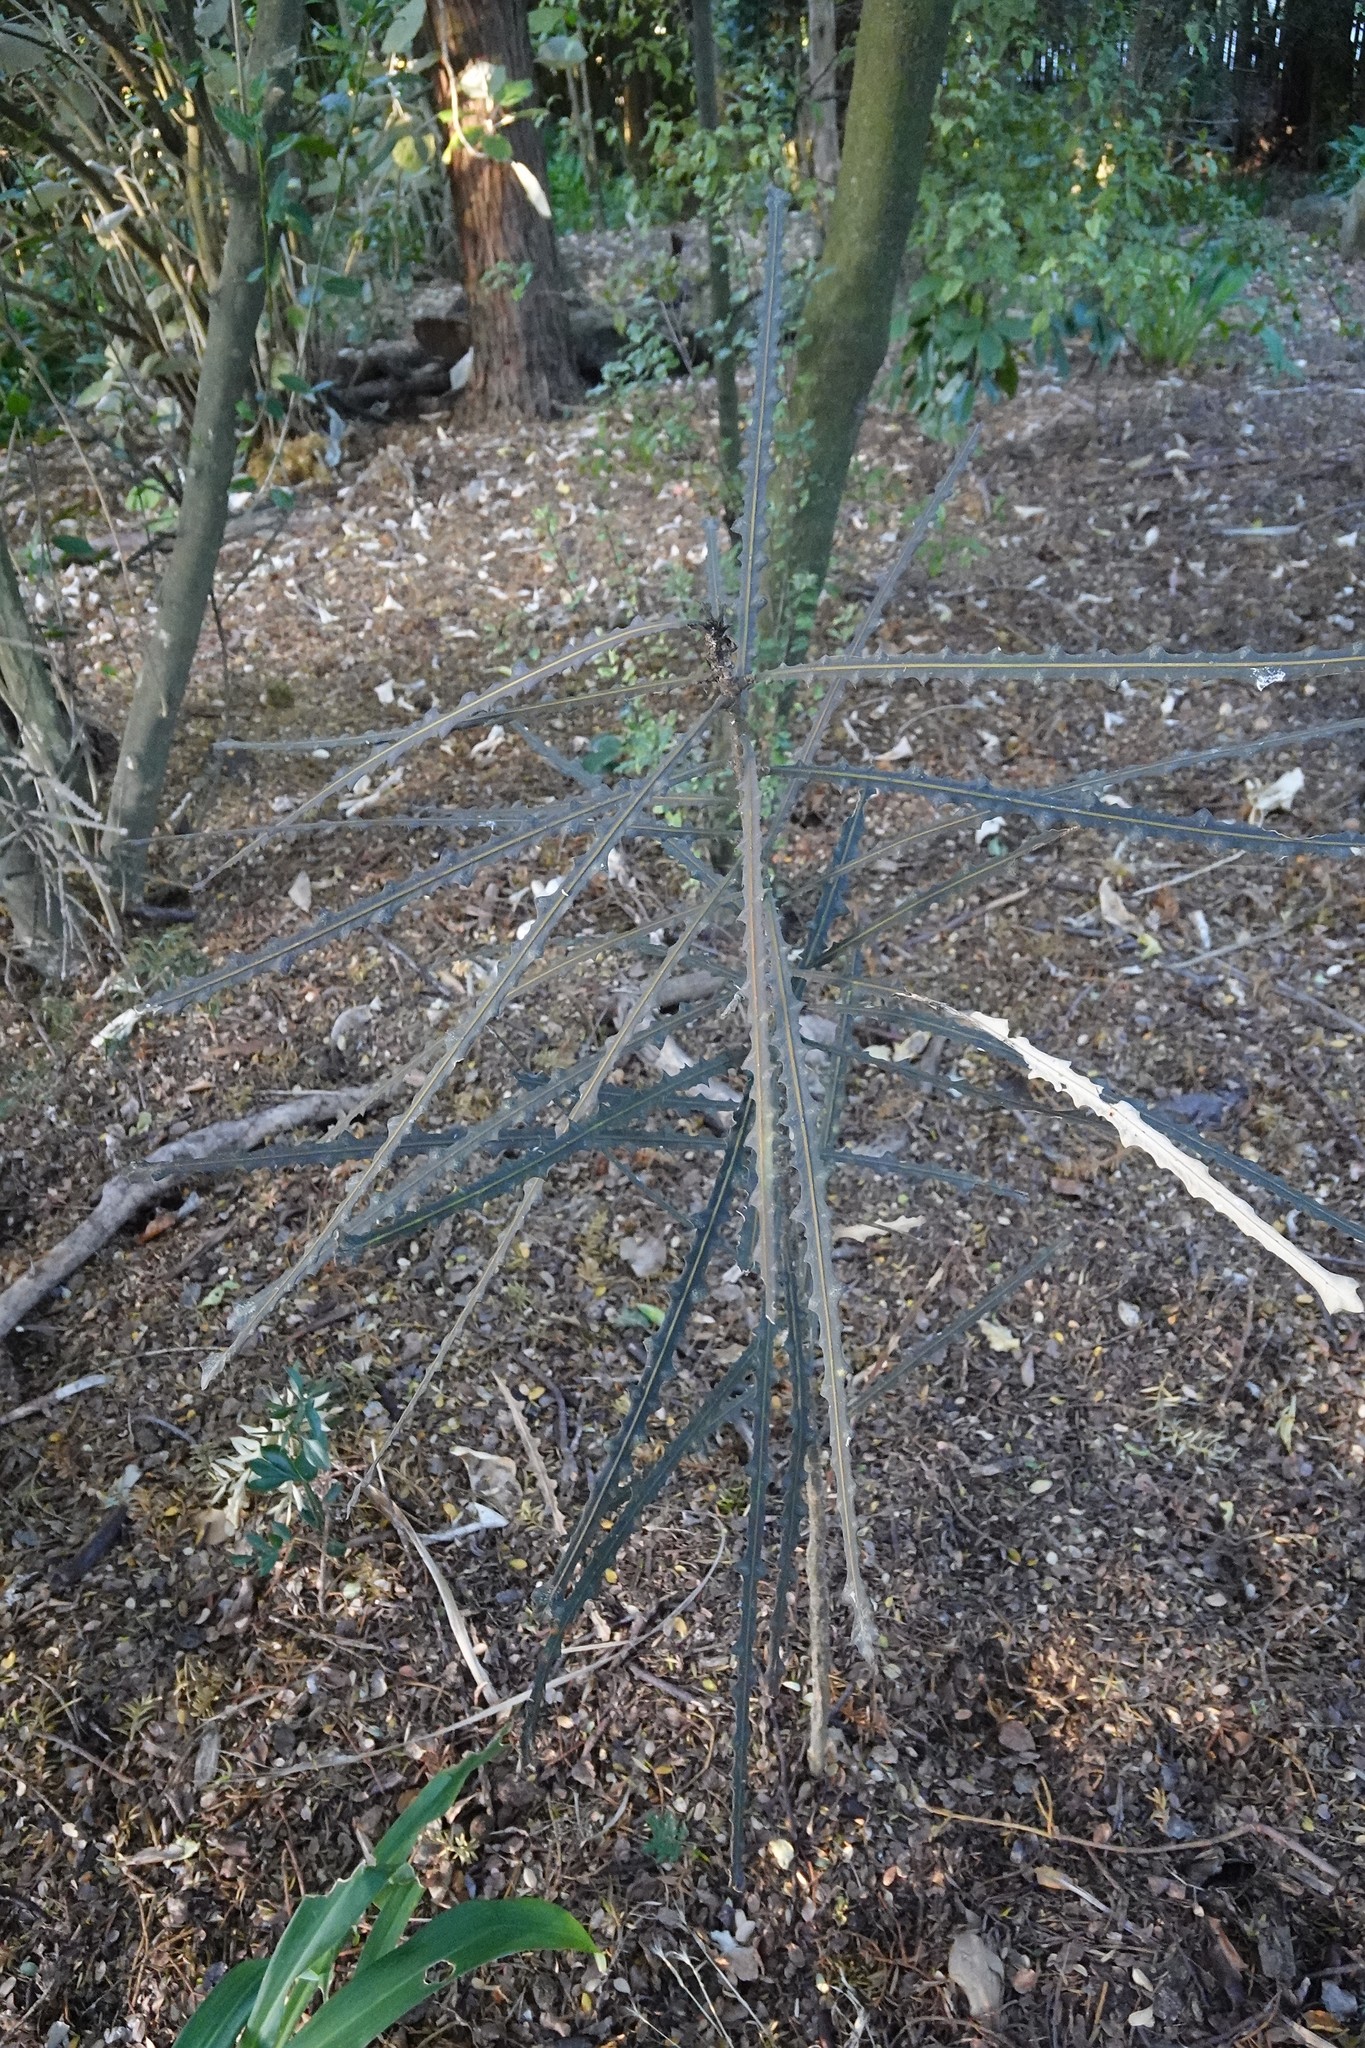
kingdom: Plantae
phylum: Tracheophyta
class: Magnoliopsida
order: Apiales
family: Araliaceae
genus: Pseudopanax
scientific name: Pseudopanax ferox
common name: Fierce lancewood
